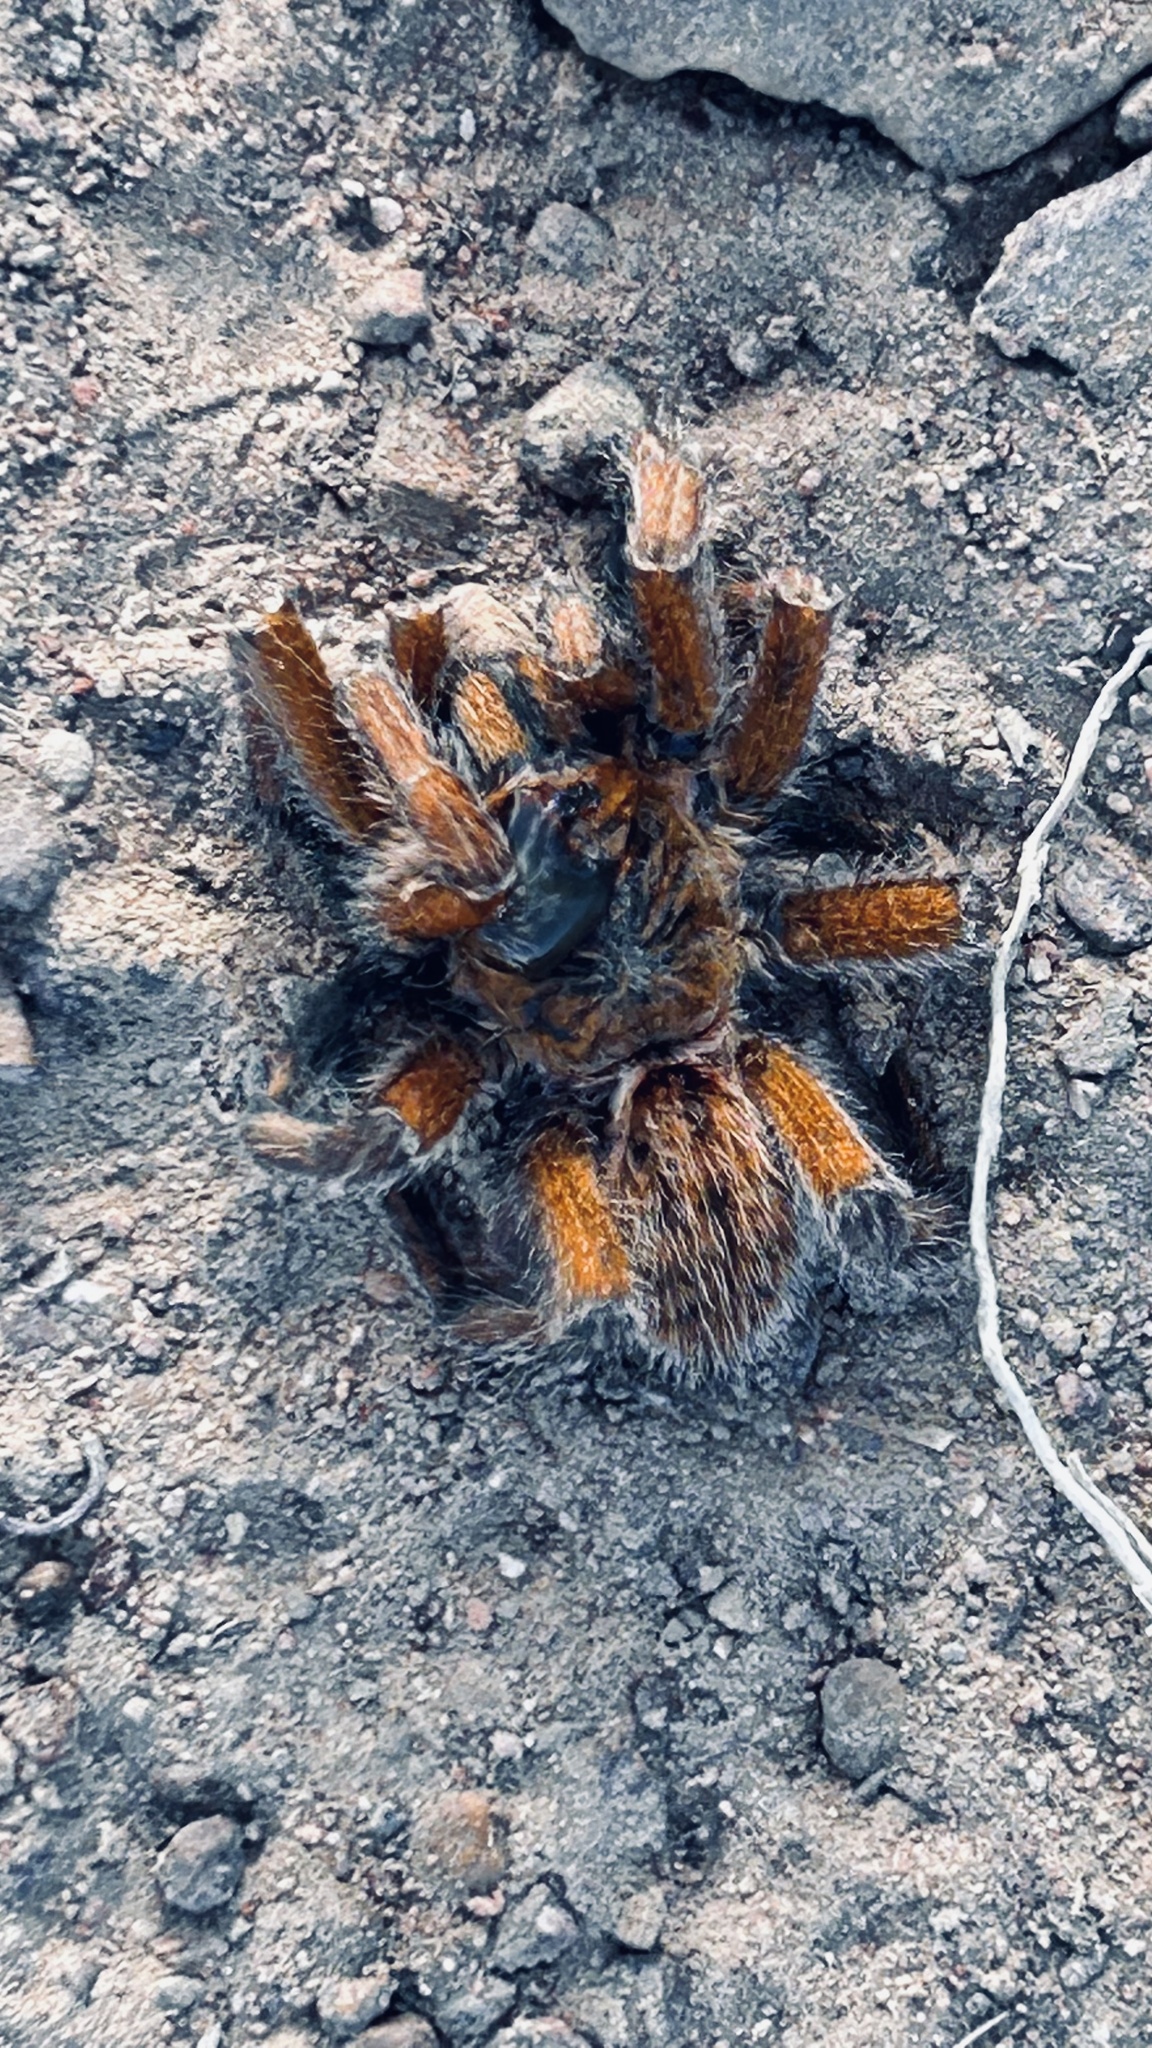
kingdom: Animalia
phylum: Arthropoda
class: Arachnida
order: Araneae
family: Theraphosidae
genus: Harpactira
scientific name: Harpactira cafreriana
